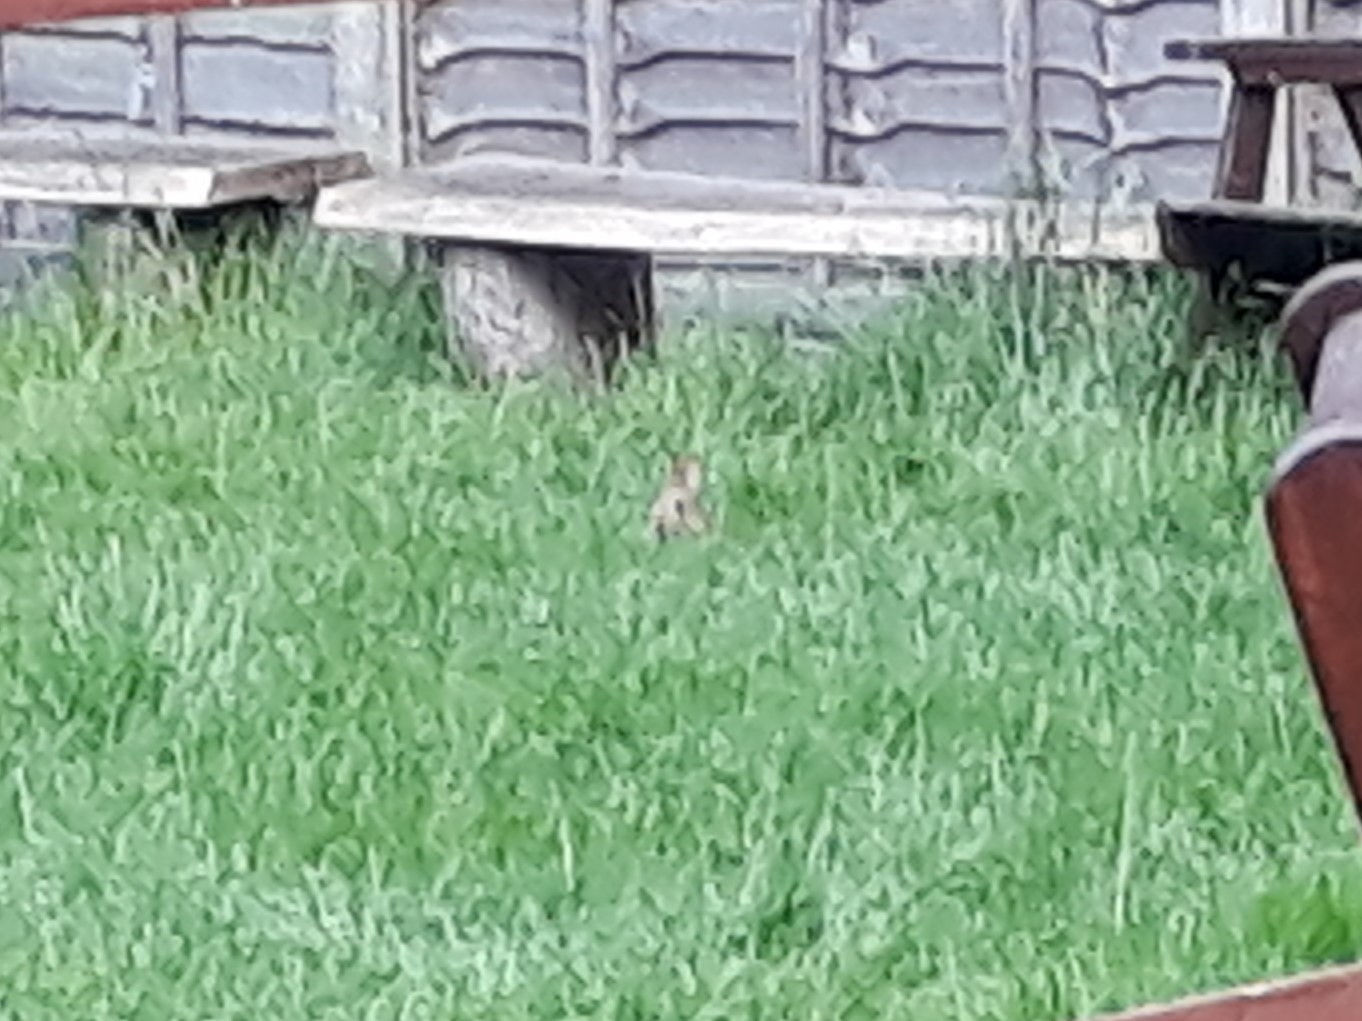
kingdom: Animalia
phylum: Chordata
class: Mammalia
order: Lagomorpha
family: Leporidae
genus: Oryctolagus
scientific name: Oryctolagus cuniculus
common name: European rabbit
